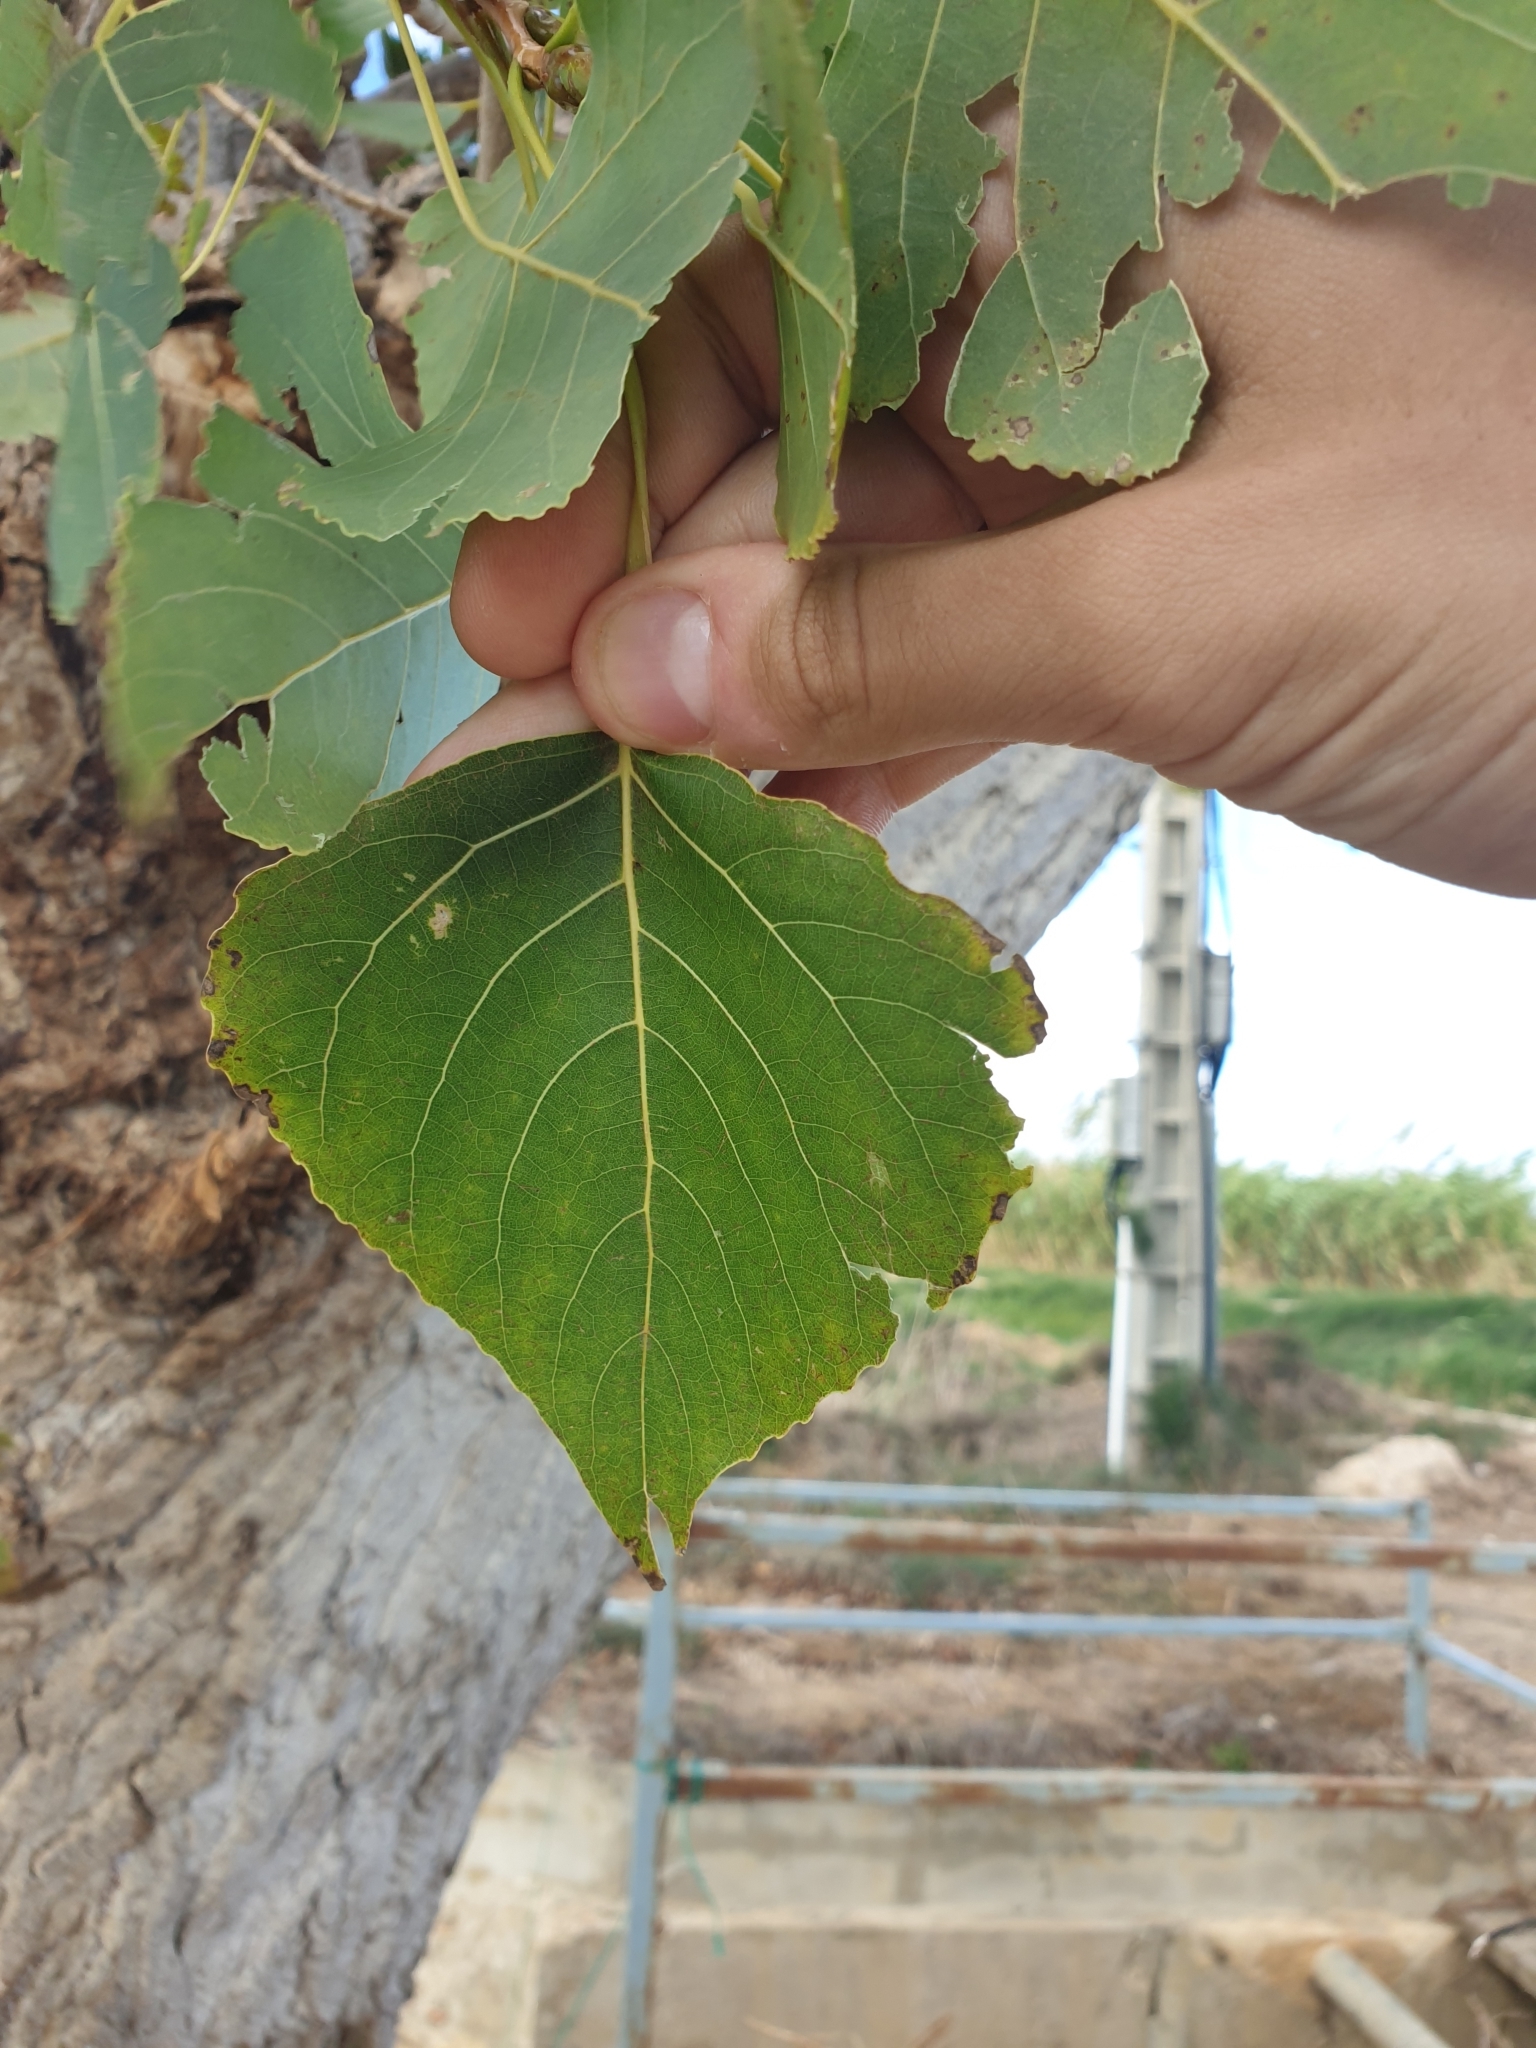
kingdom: Plantae
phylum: Tracheophyta
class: Magnoliopsida
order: Malpighiales
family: Salicaceae
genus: Populus
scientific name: Populus nigra
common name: Black poplar
